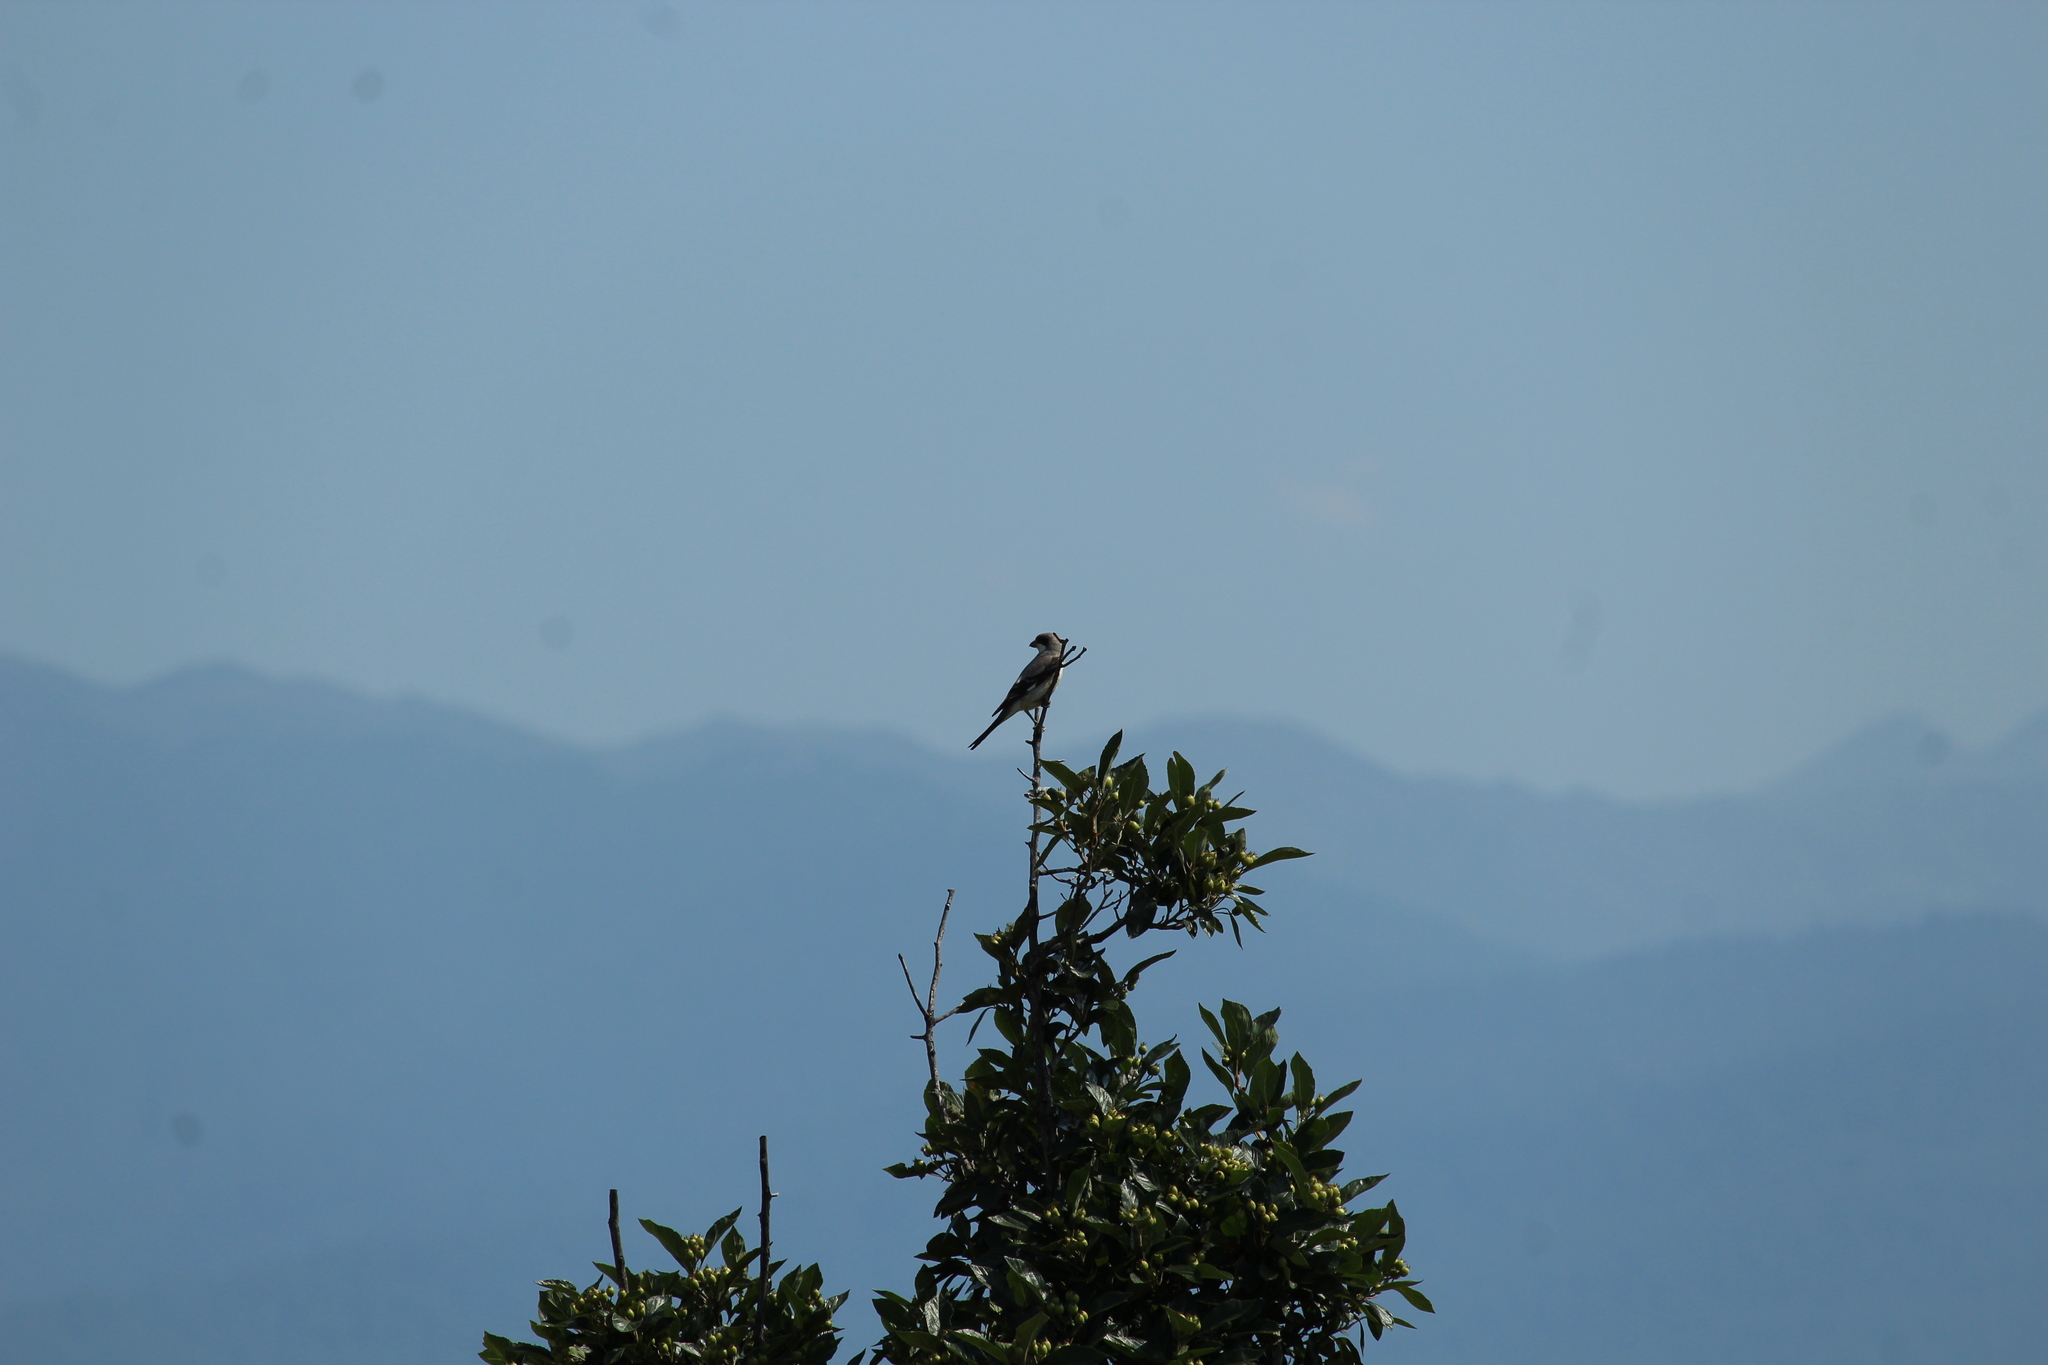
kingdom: Animalia
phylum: Chordata
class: Aves
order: Passeriformes
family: Laniidae
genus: Lanius
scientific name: Lanius excubitor
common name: Great grey shrike
